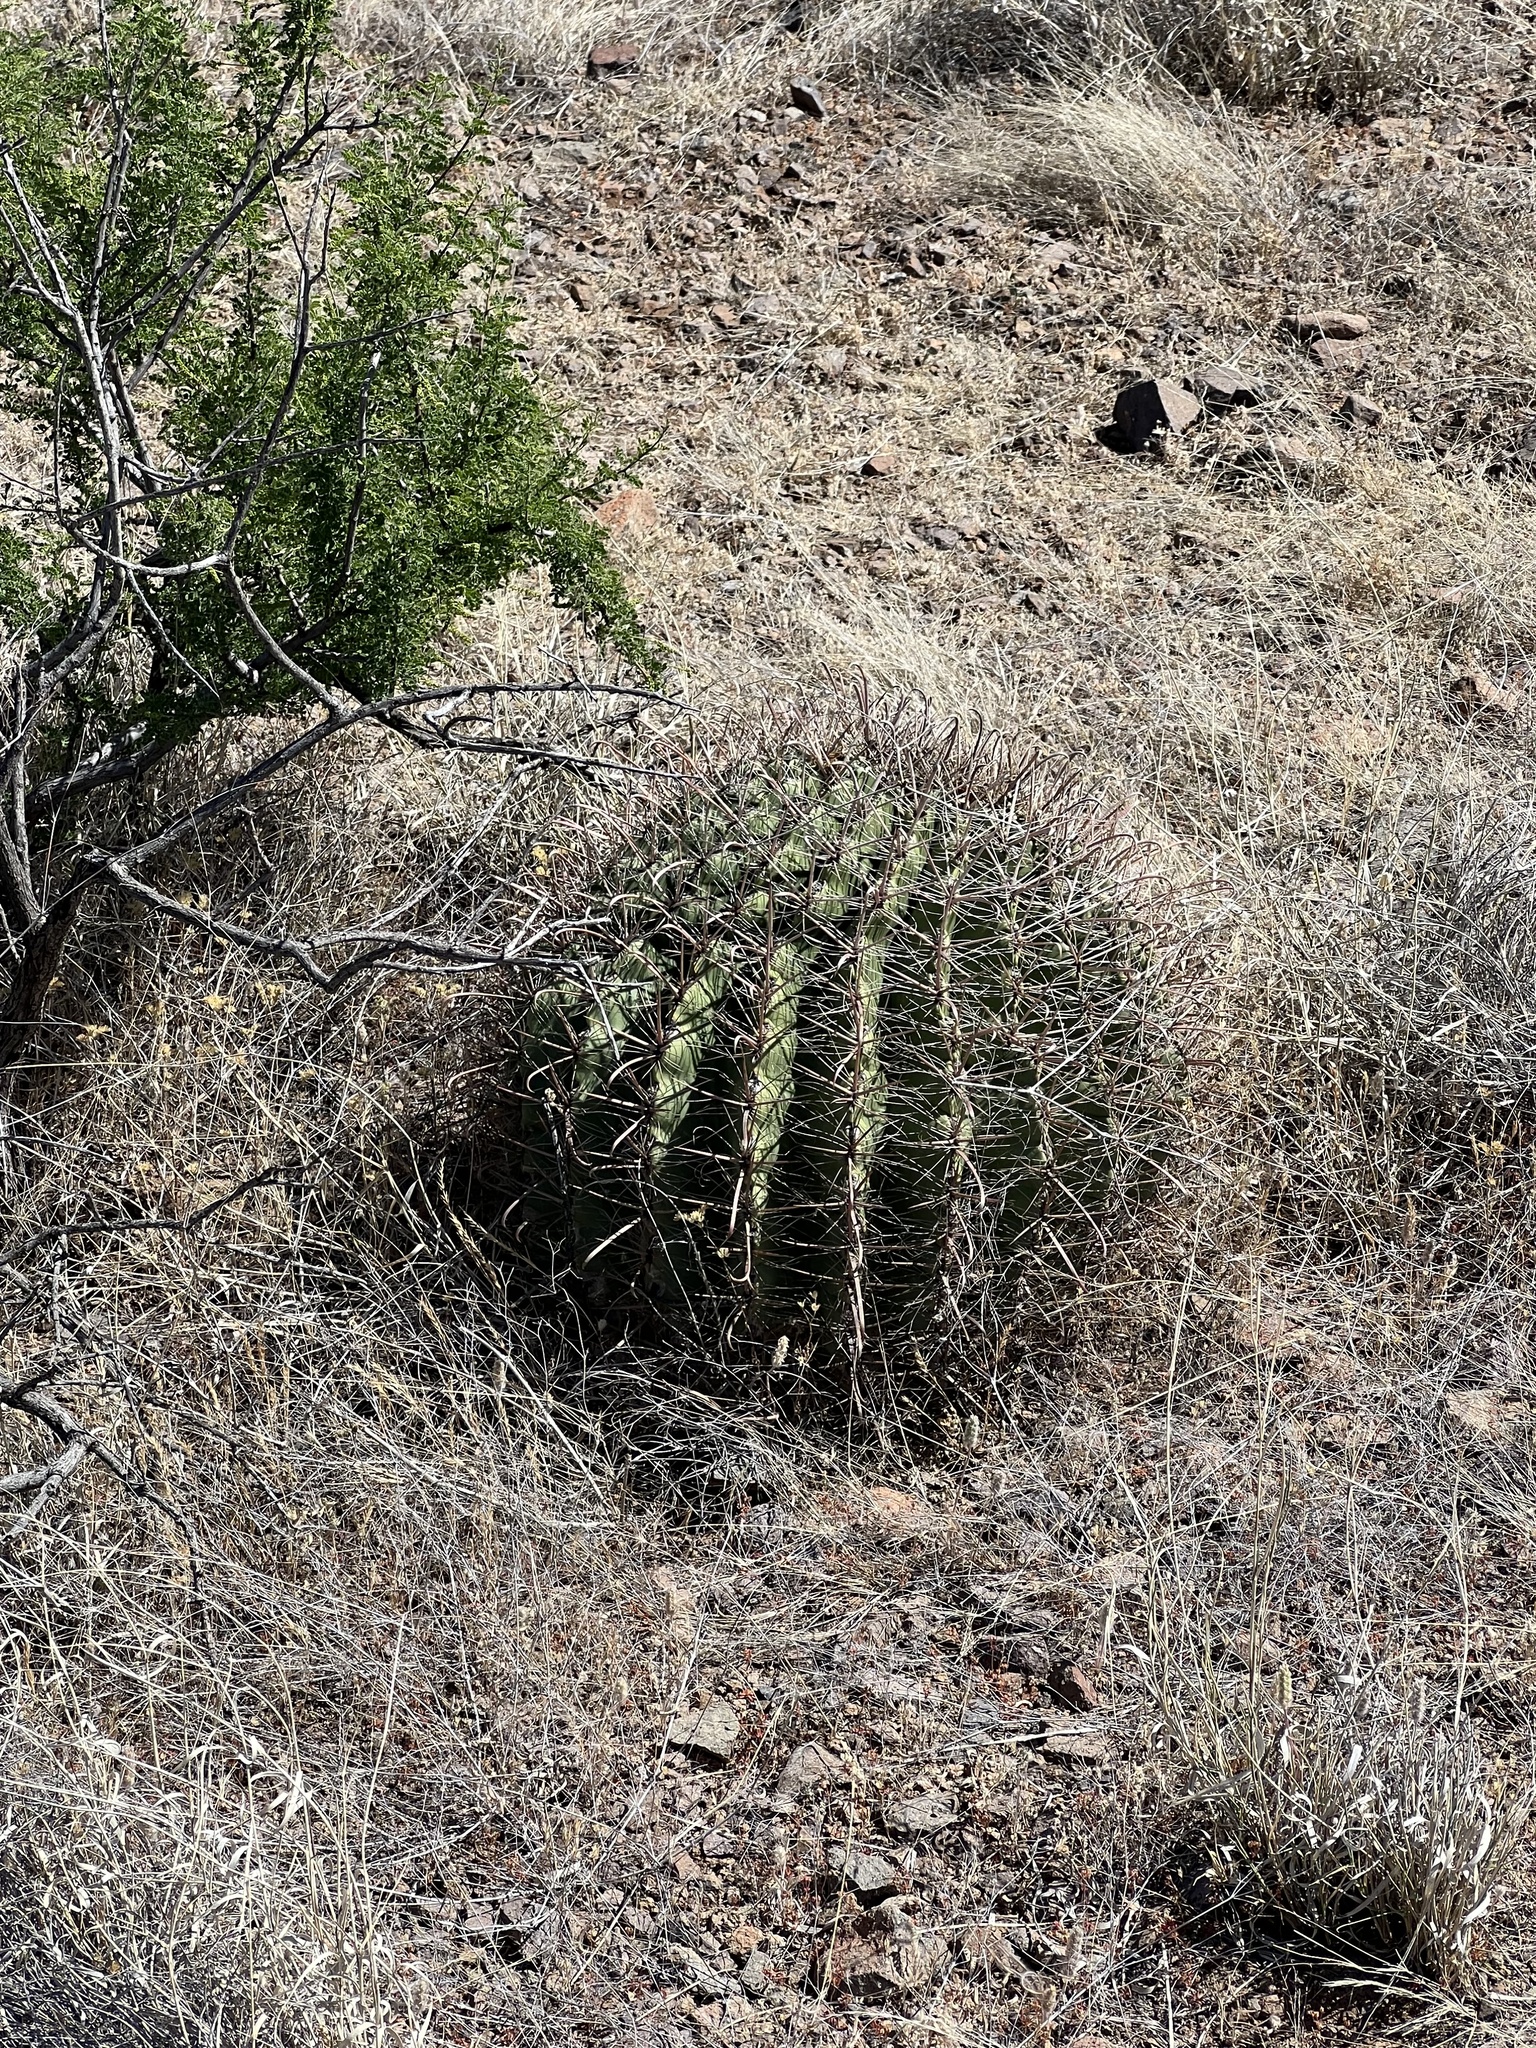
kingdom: Plantae
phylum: Tracheophyta
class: Magnoliopsida
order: Caryophyllales
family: Cactaceae
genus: Ferocactus
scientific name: Ferocactus wislizeni
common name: Candy barrel cactus
